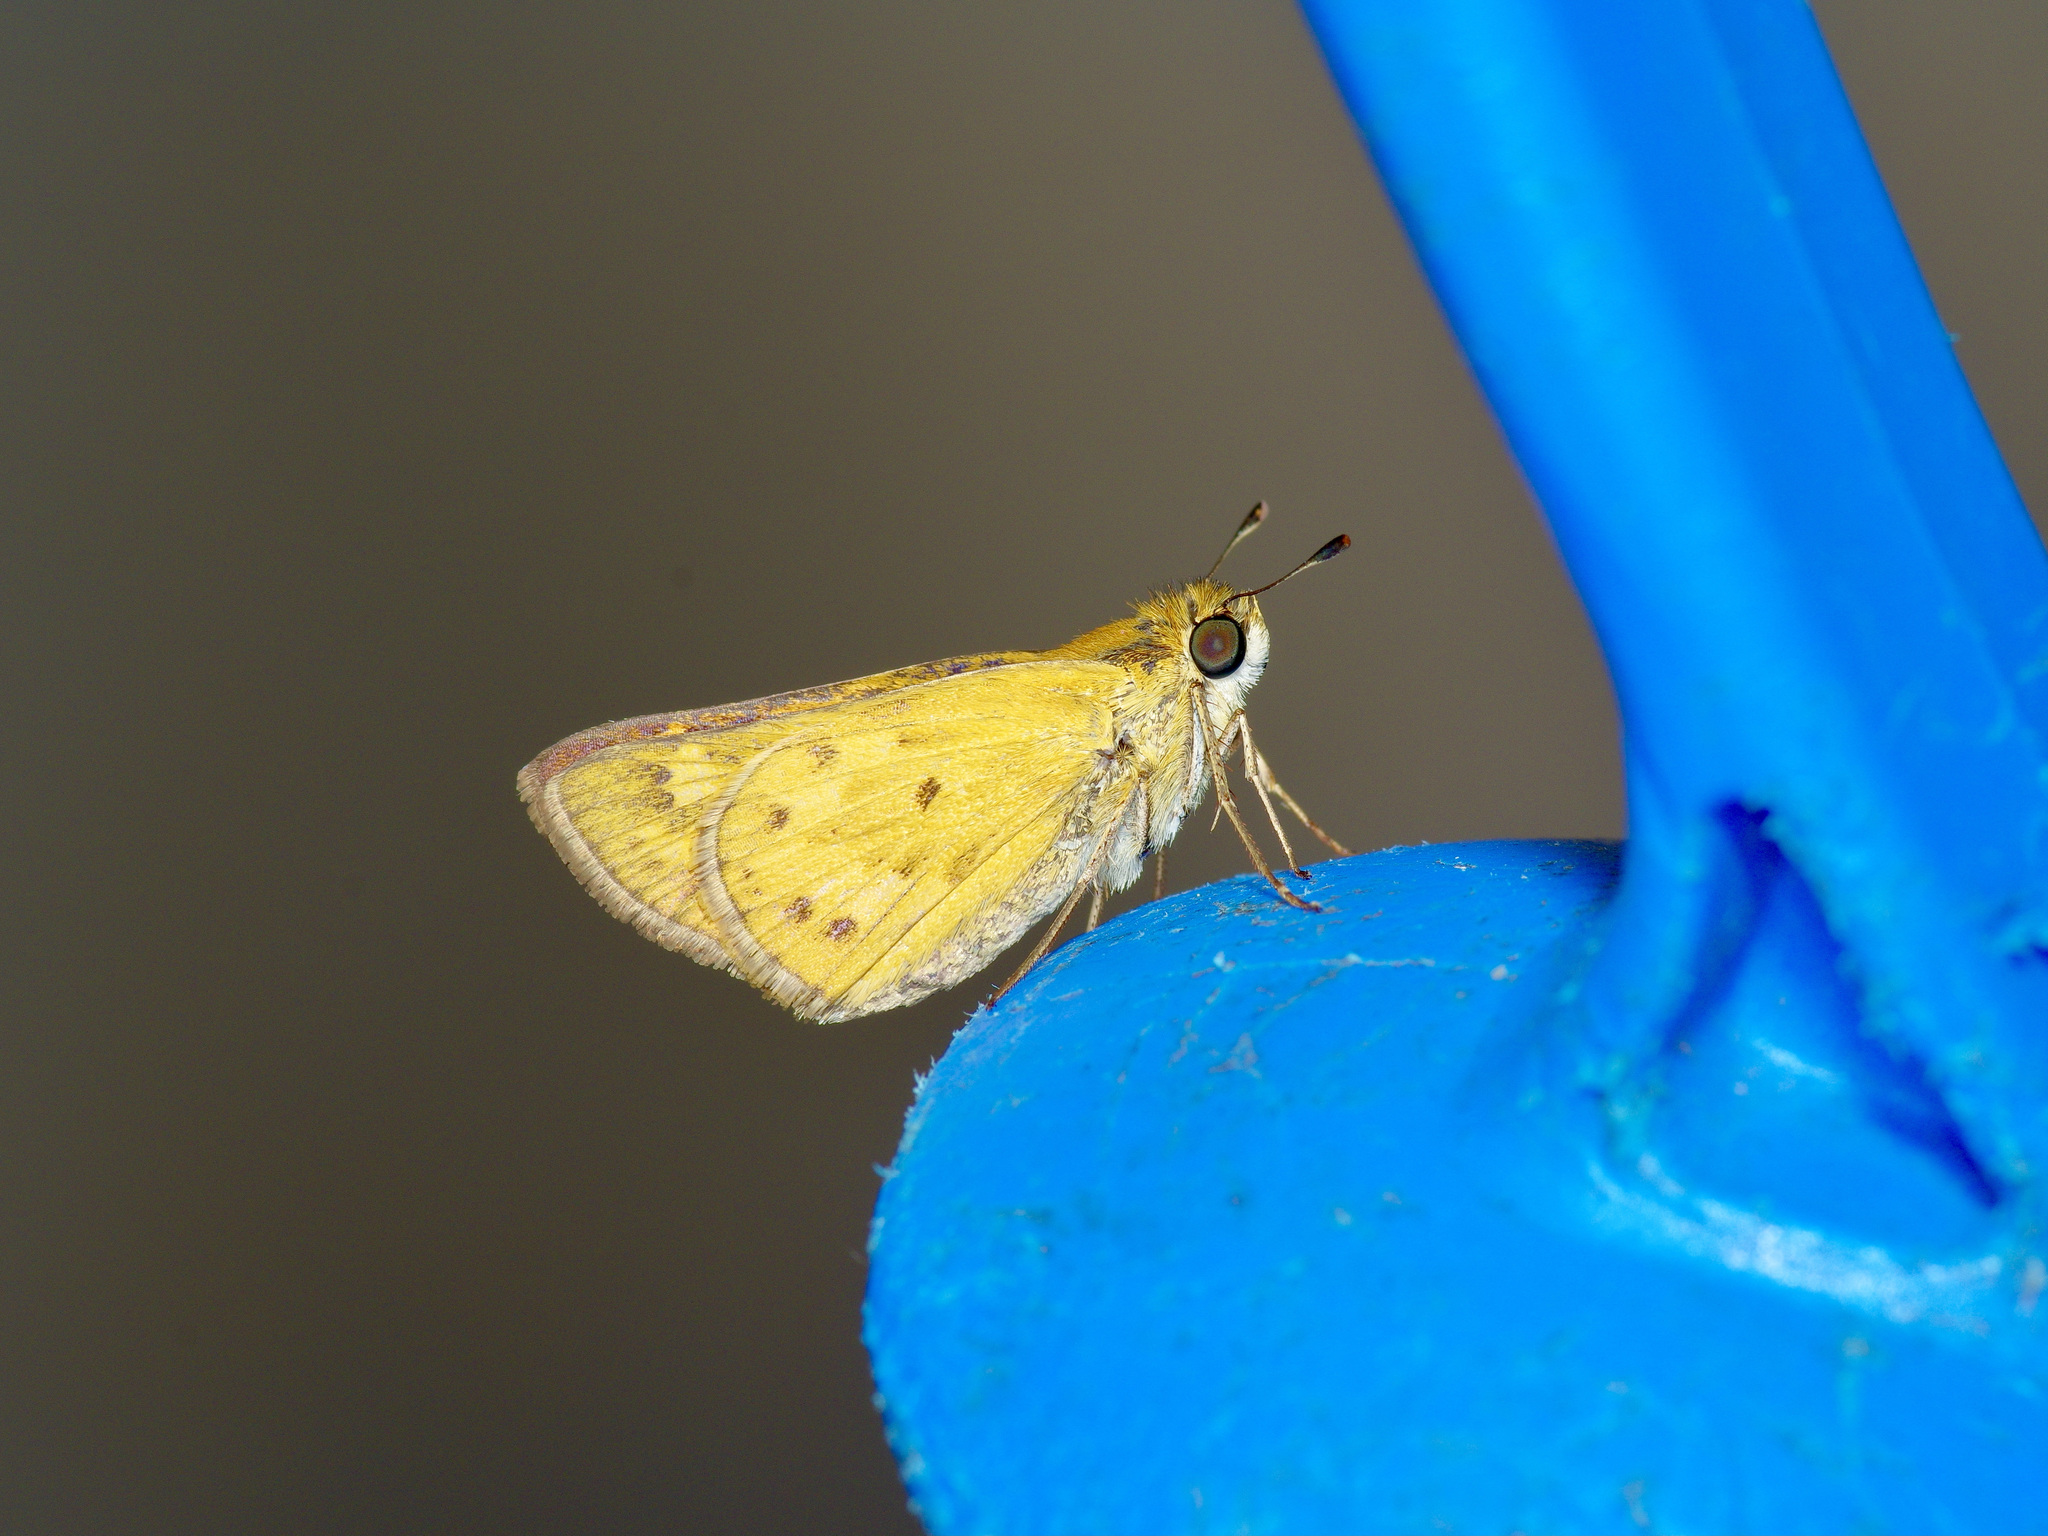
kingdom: Animalia
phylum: Arthropoda
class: Insecta
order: Lepidoptera
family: Hesperiidae
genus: Hylephila
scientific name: Hylephila phyleus
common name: Fiery skipper
